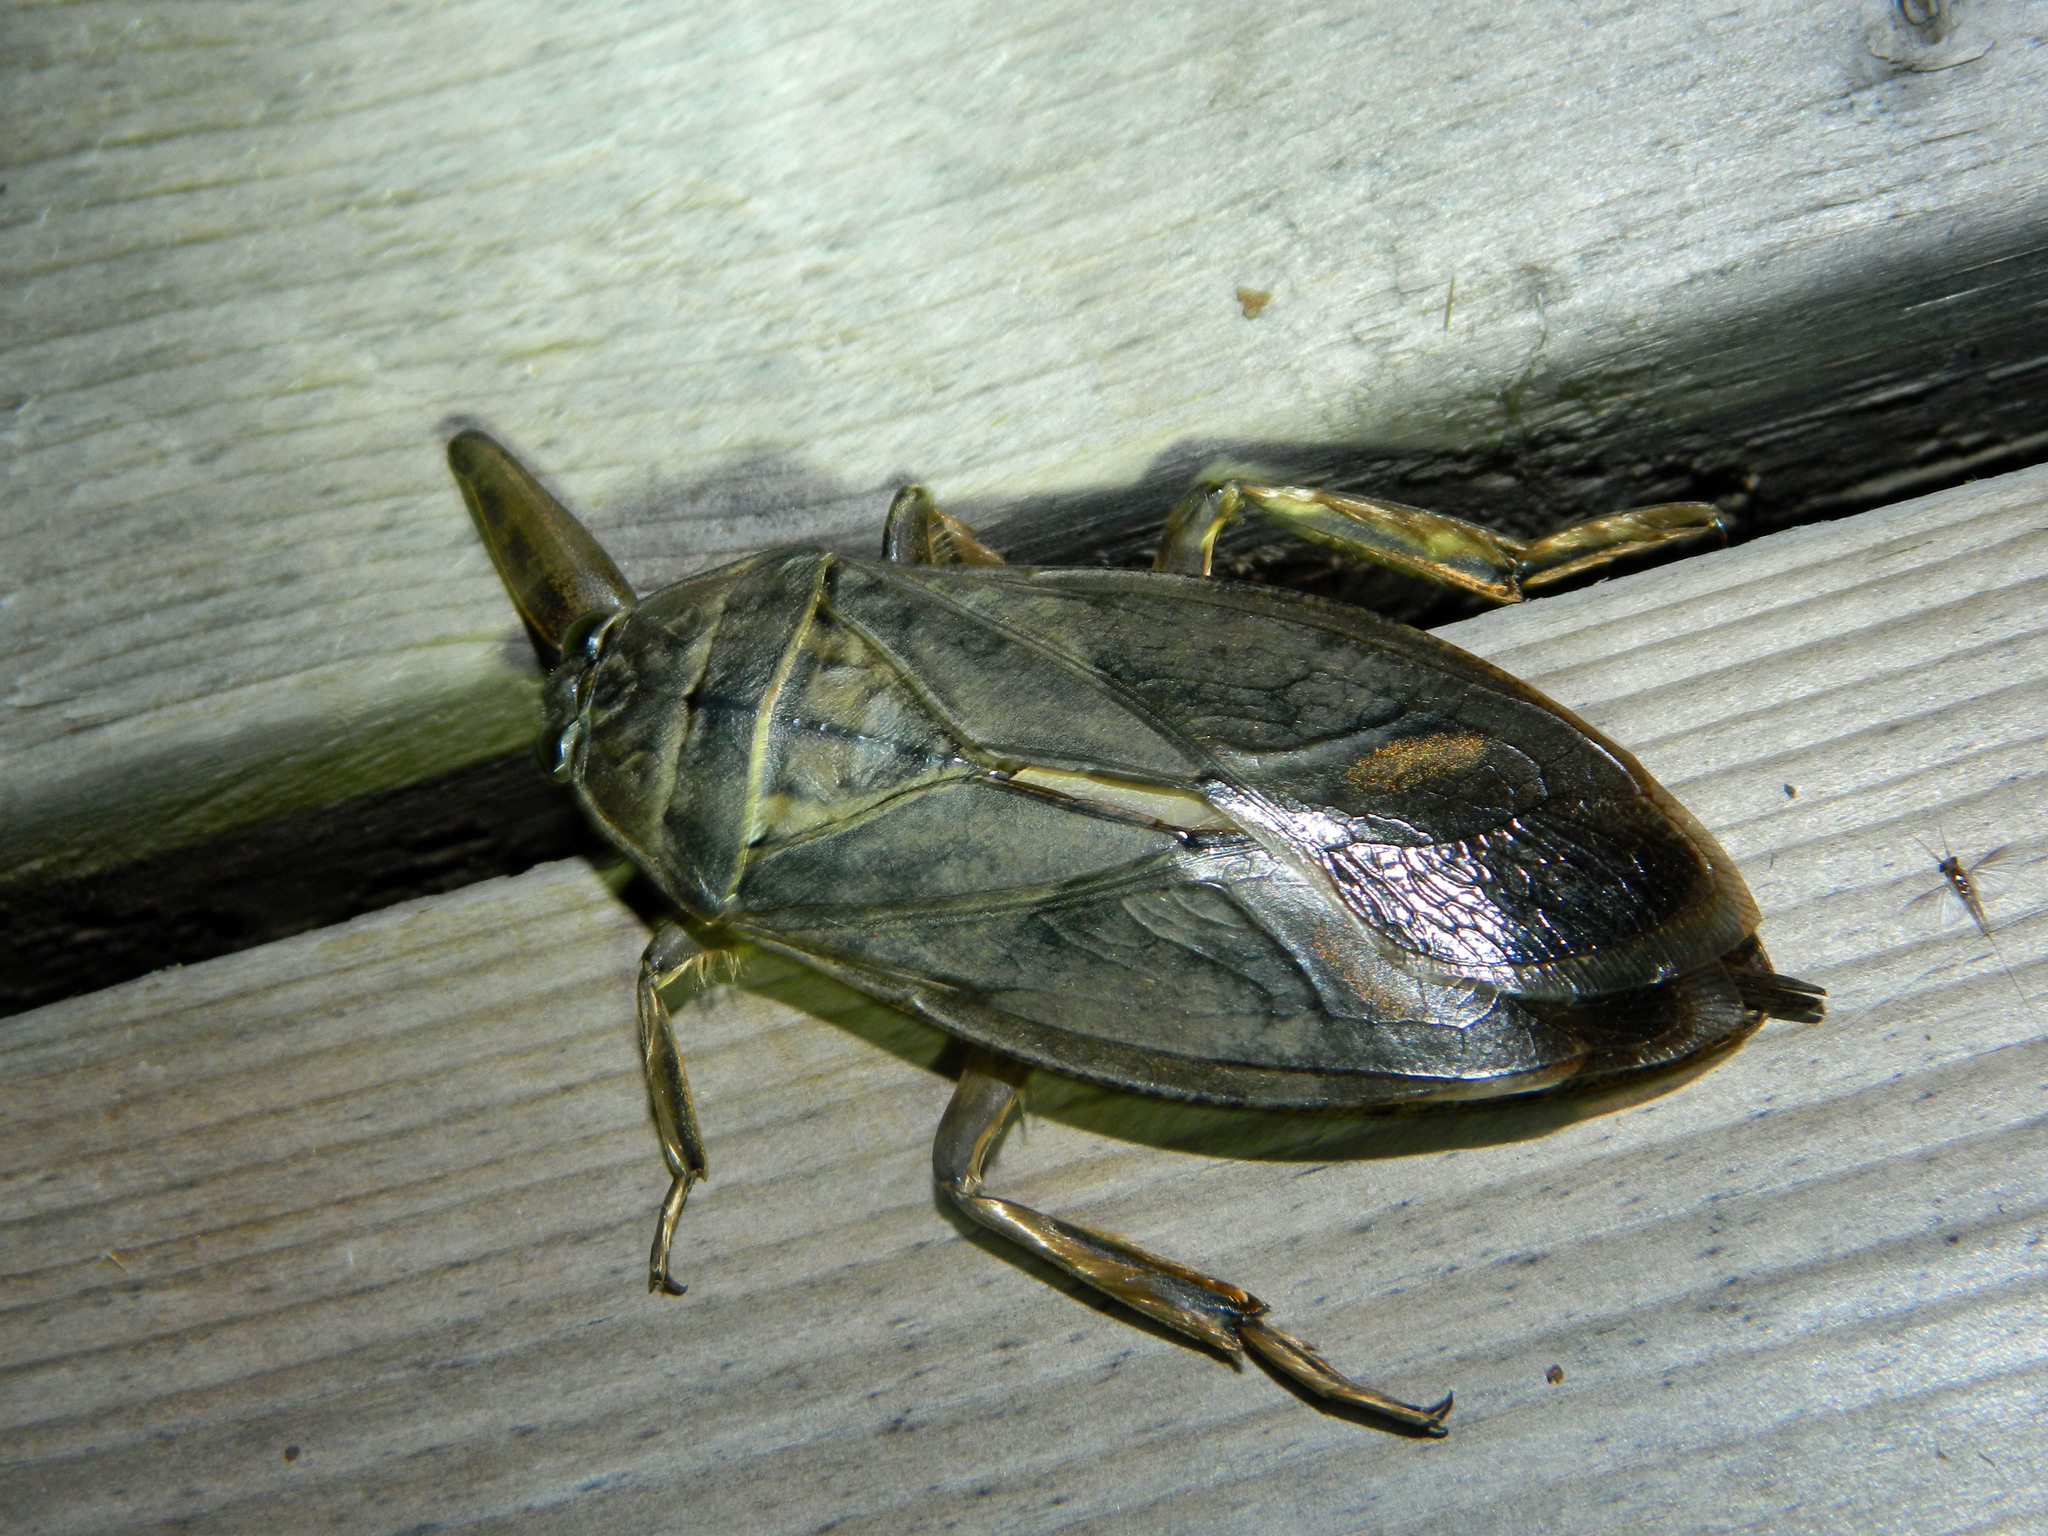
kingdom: Animalia
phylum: Arthropoda
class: Insecta
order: Hemiptera
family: Belostomatidae
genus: Lethocerus
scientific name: Lethocerus americanus
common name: Giant water bug
